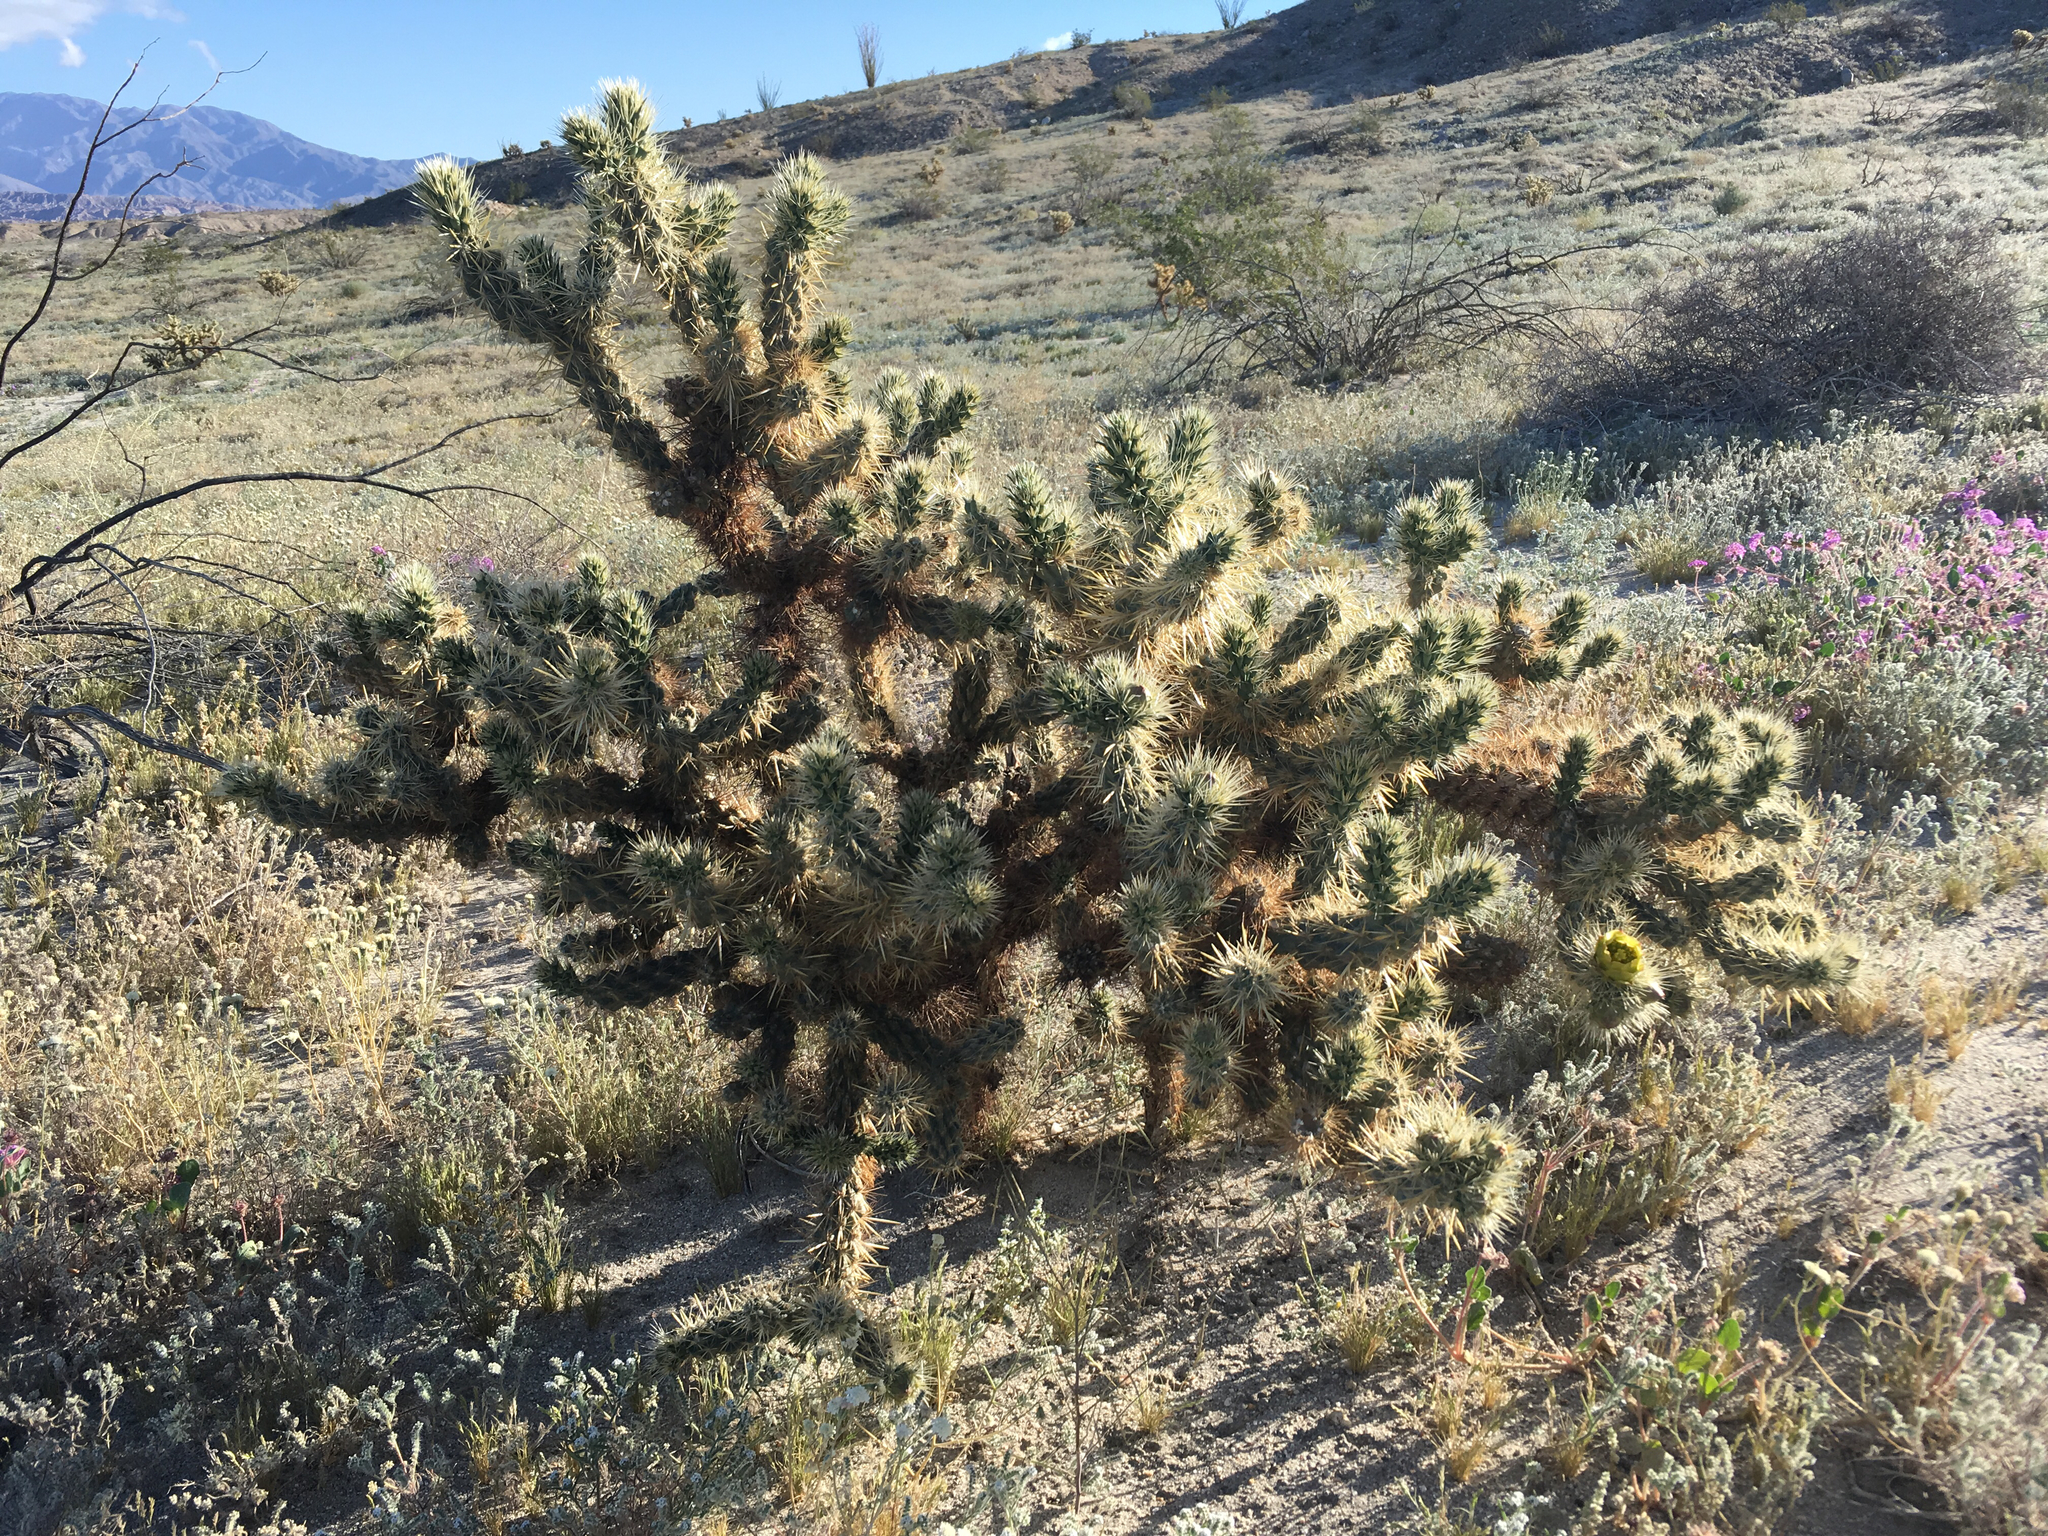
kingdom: Plantae
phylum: Tracheophyta
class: Magnoliopsida
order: Caryophyllales
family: Cactaceae
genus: Cylindropuntia
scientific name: Cylindropuntia echinocarpa
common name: Ground cholla
